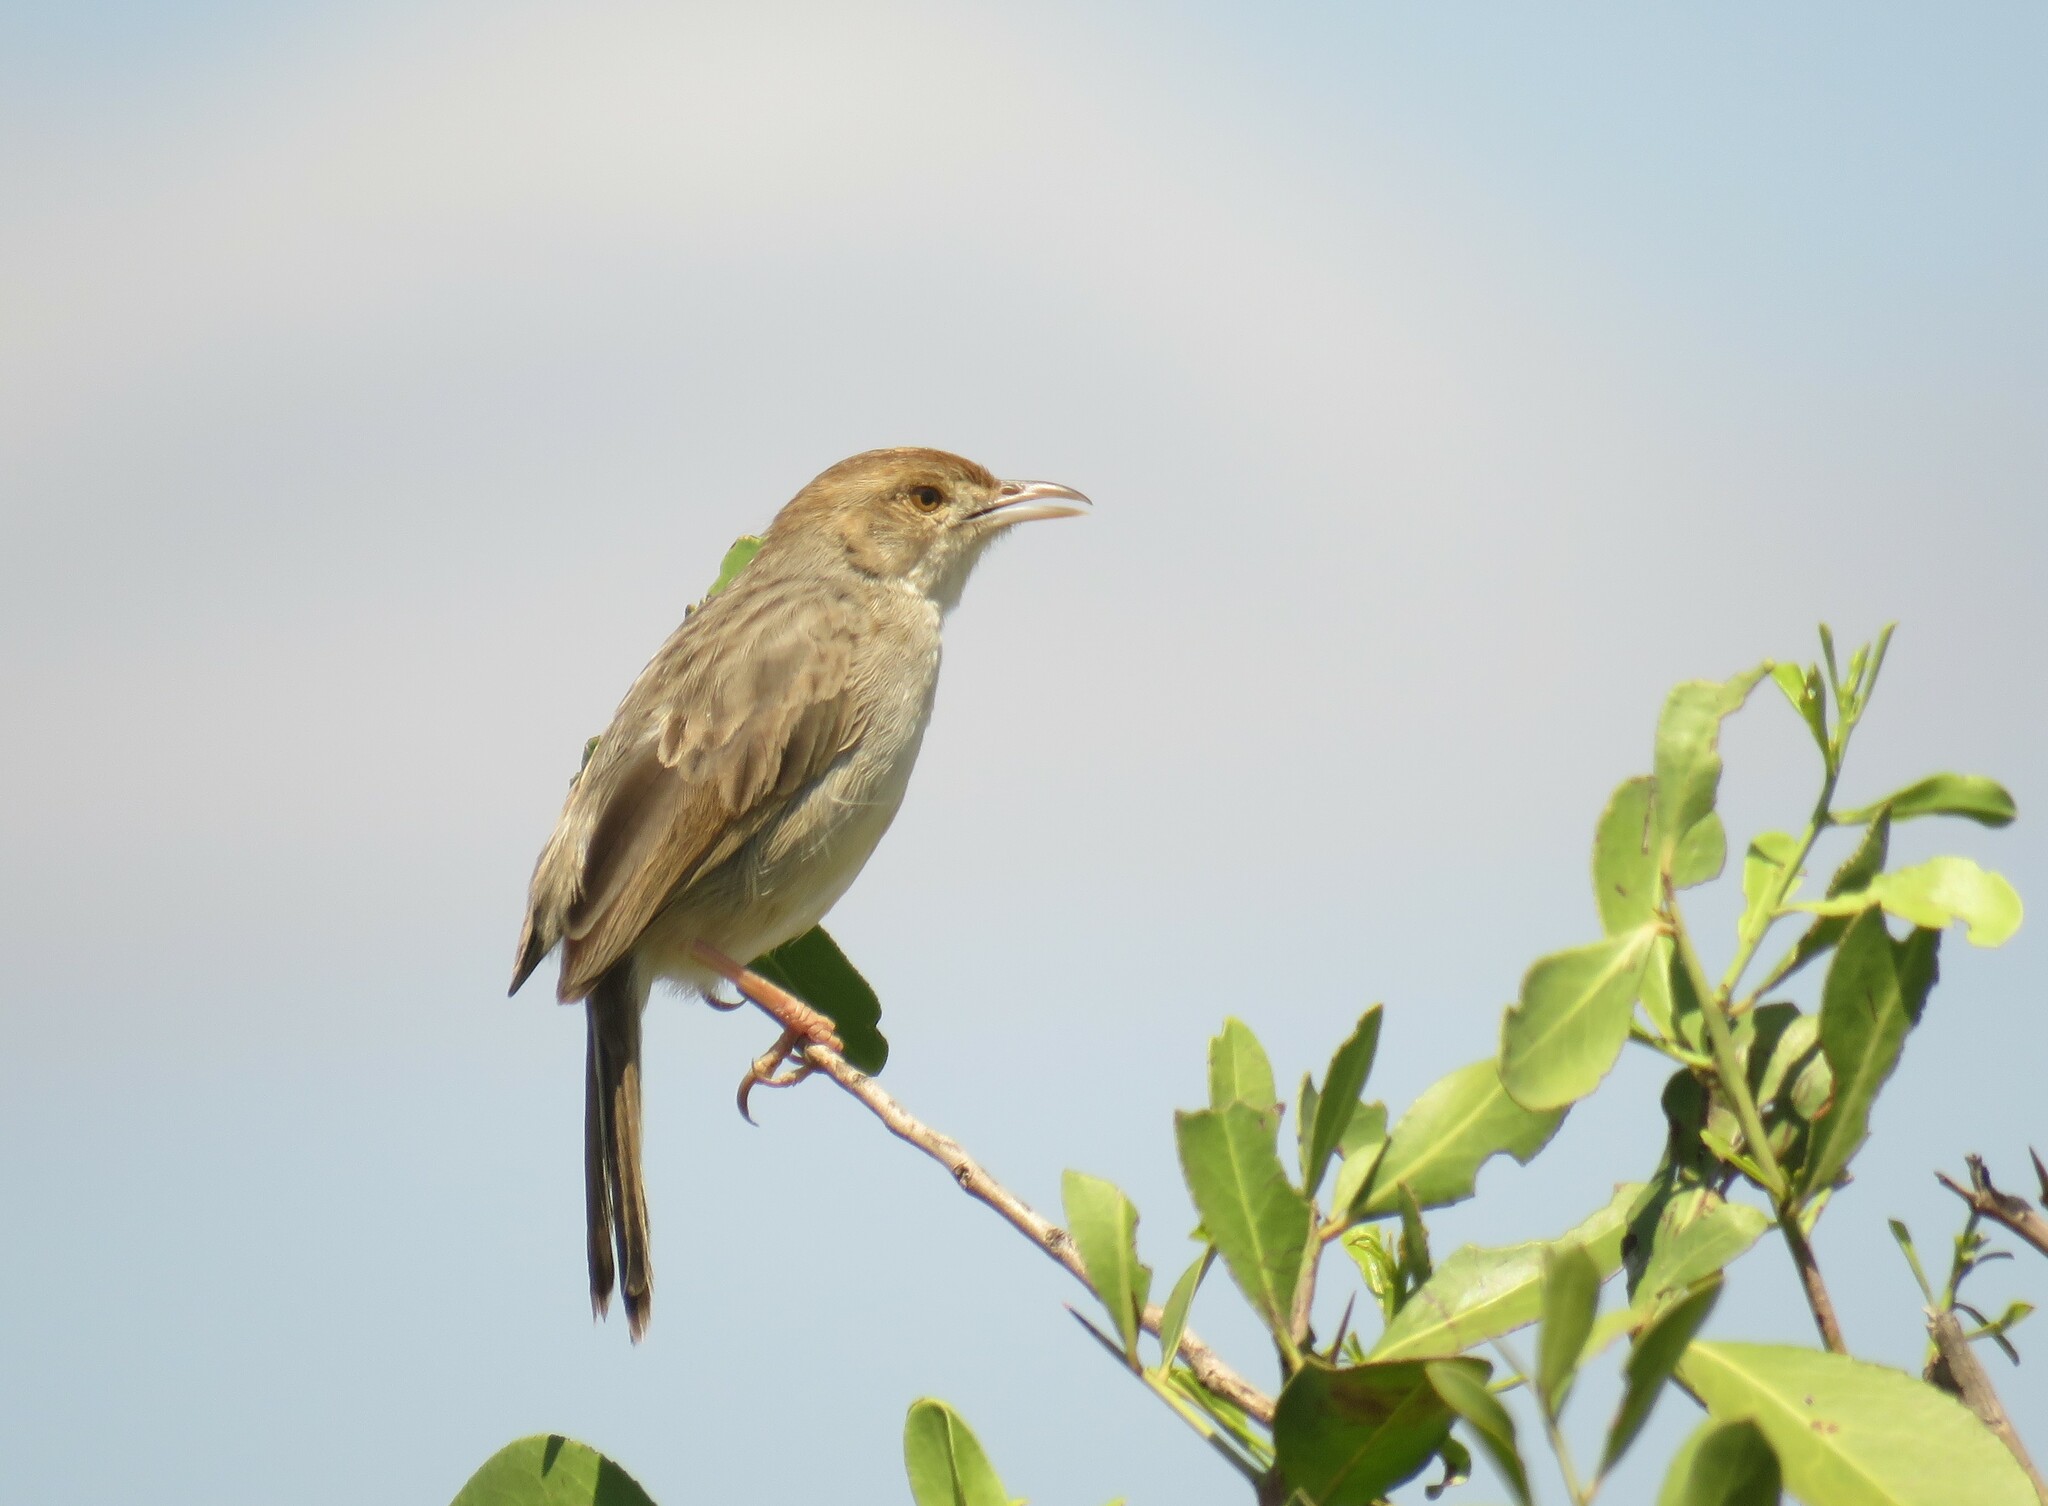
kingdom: Animalia
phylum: Chordata
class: Aves
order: Passeriformes
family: Cisticolidae
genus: Cisticola
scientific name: Cisticola chiniana
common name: Rattling cisticola
